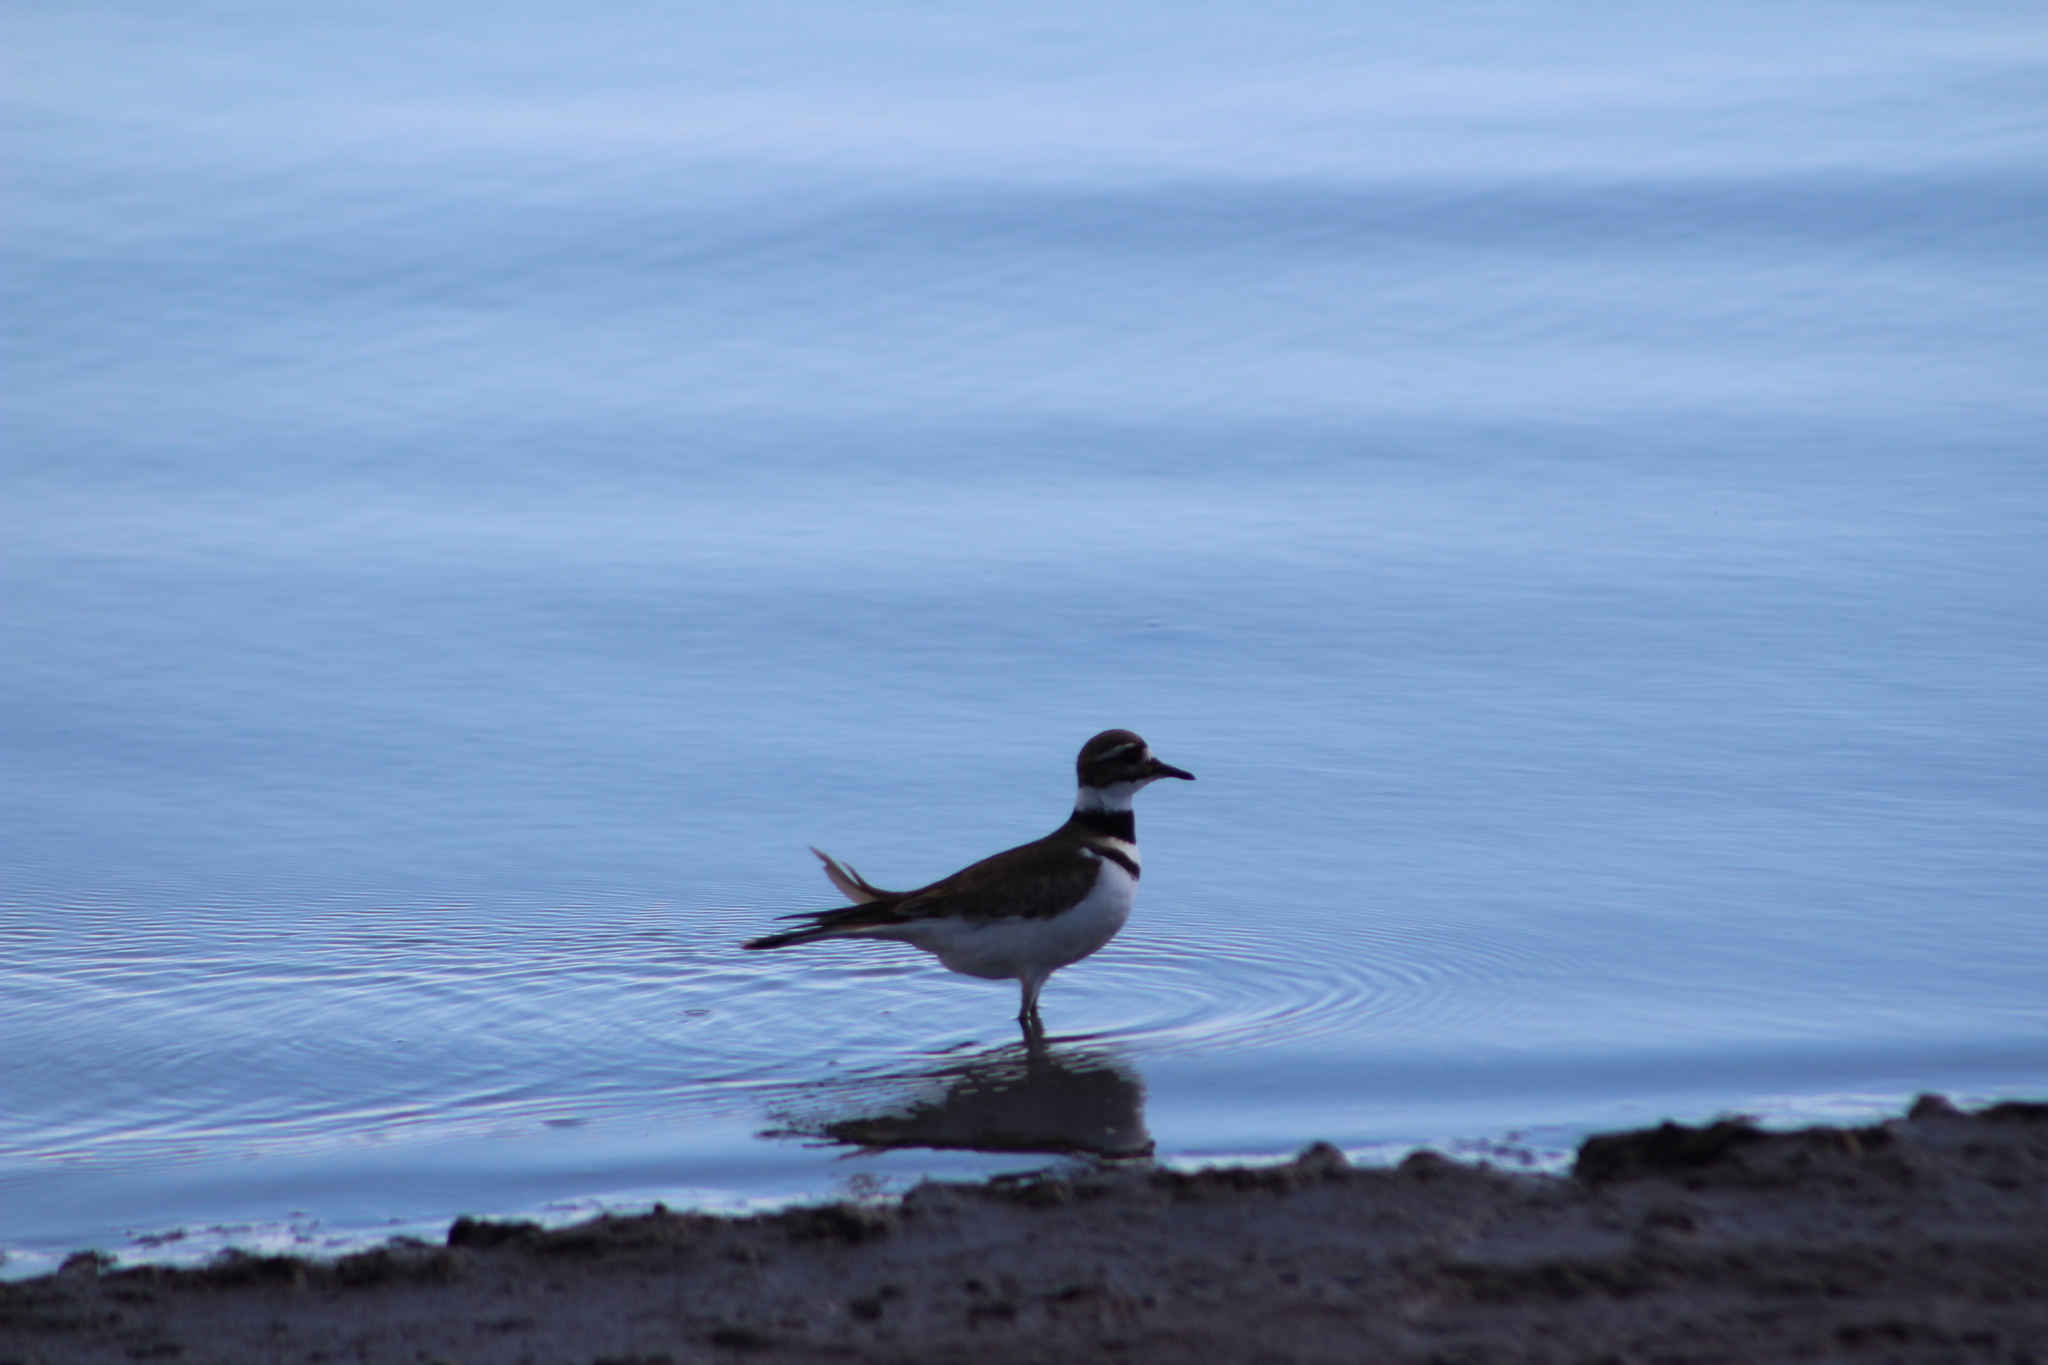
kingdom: Animalia
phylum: Chordata
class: Aves
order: Charadriiformes
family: Charadriidae
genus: Charadrius
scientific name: Charadrius vociferus
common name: Killdeer
